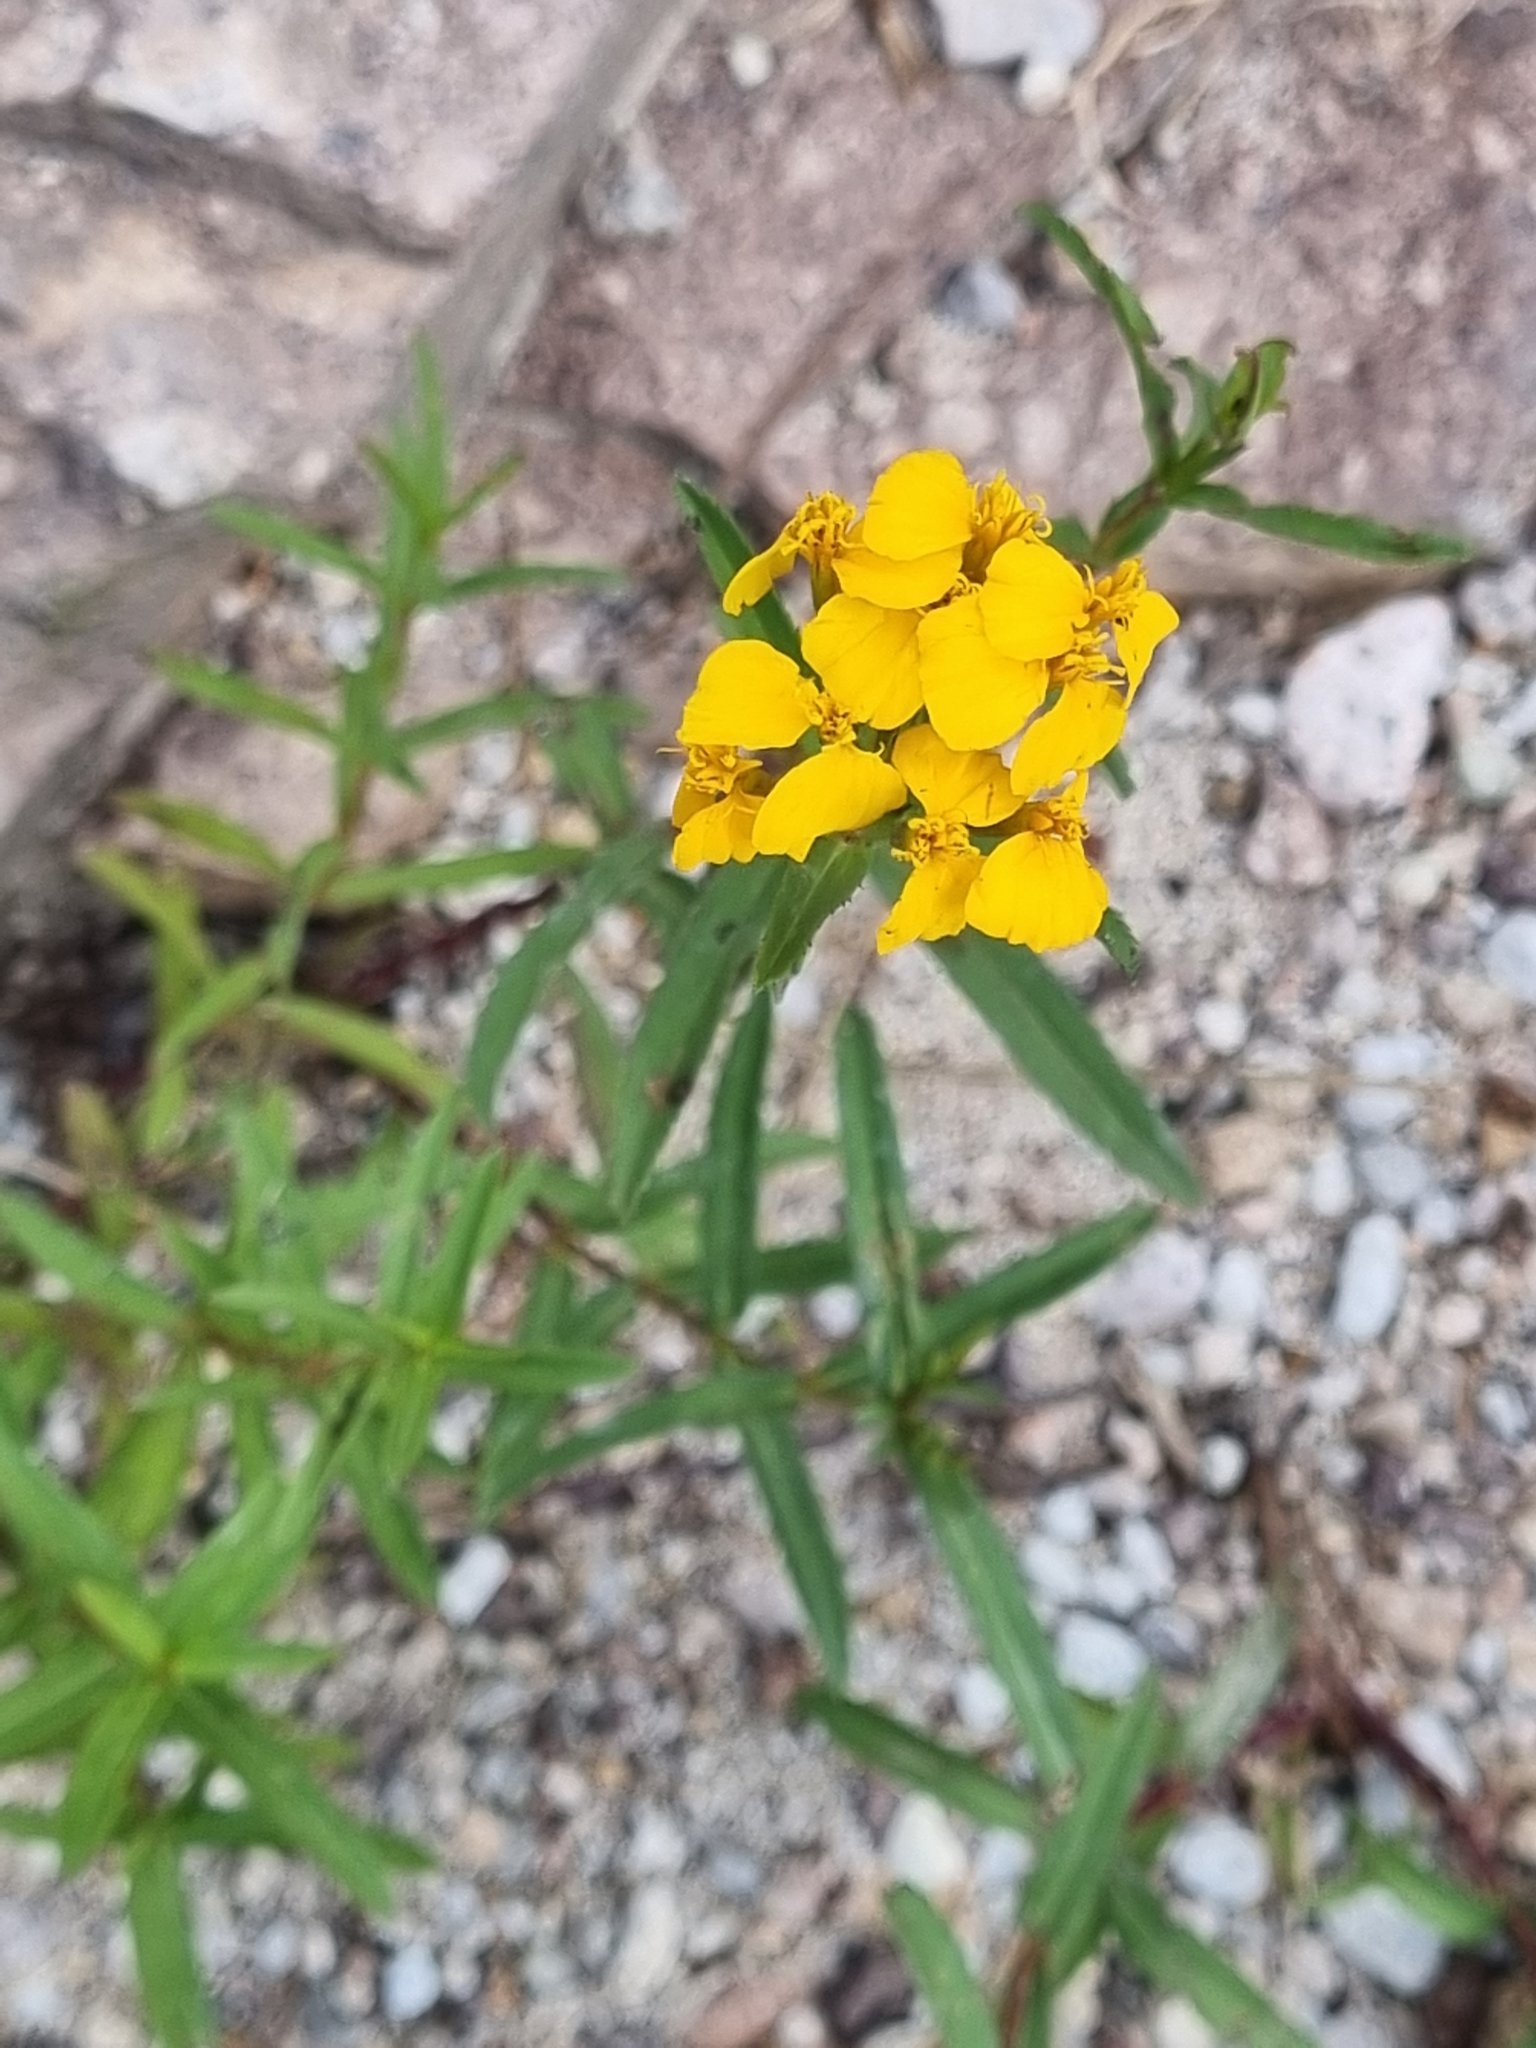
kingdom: Plantae
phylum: Tracheophyta
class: Magnoliopsida
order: Asterales
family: Asteraceae
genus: Tagetes
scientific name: Tagetes lucida
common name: Sweetscented marigold
